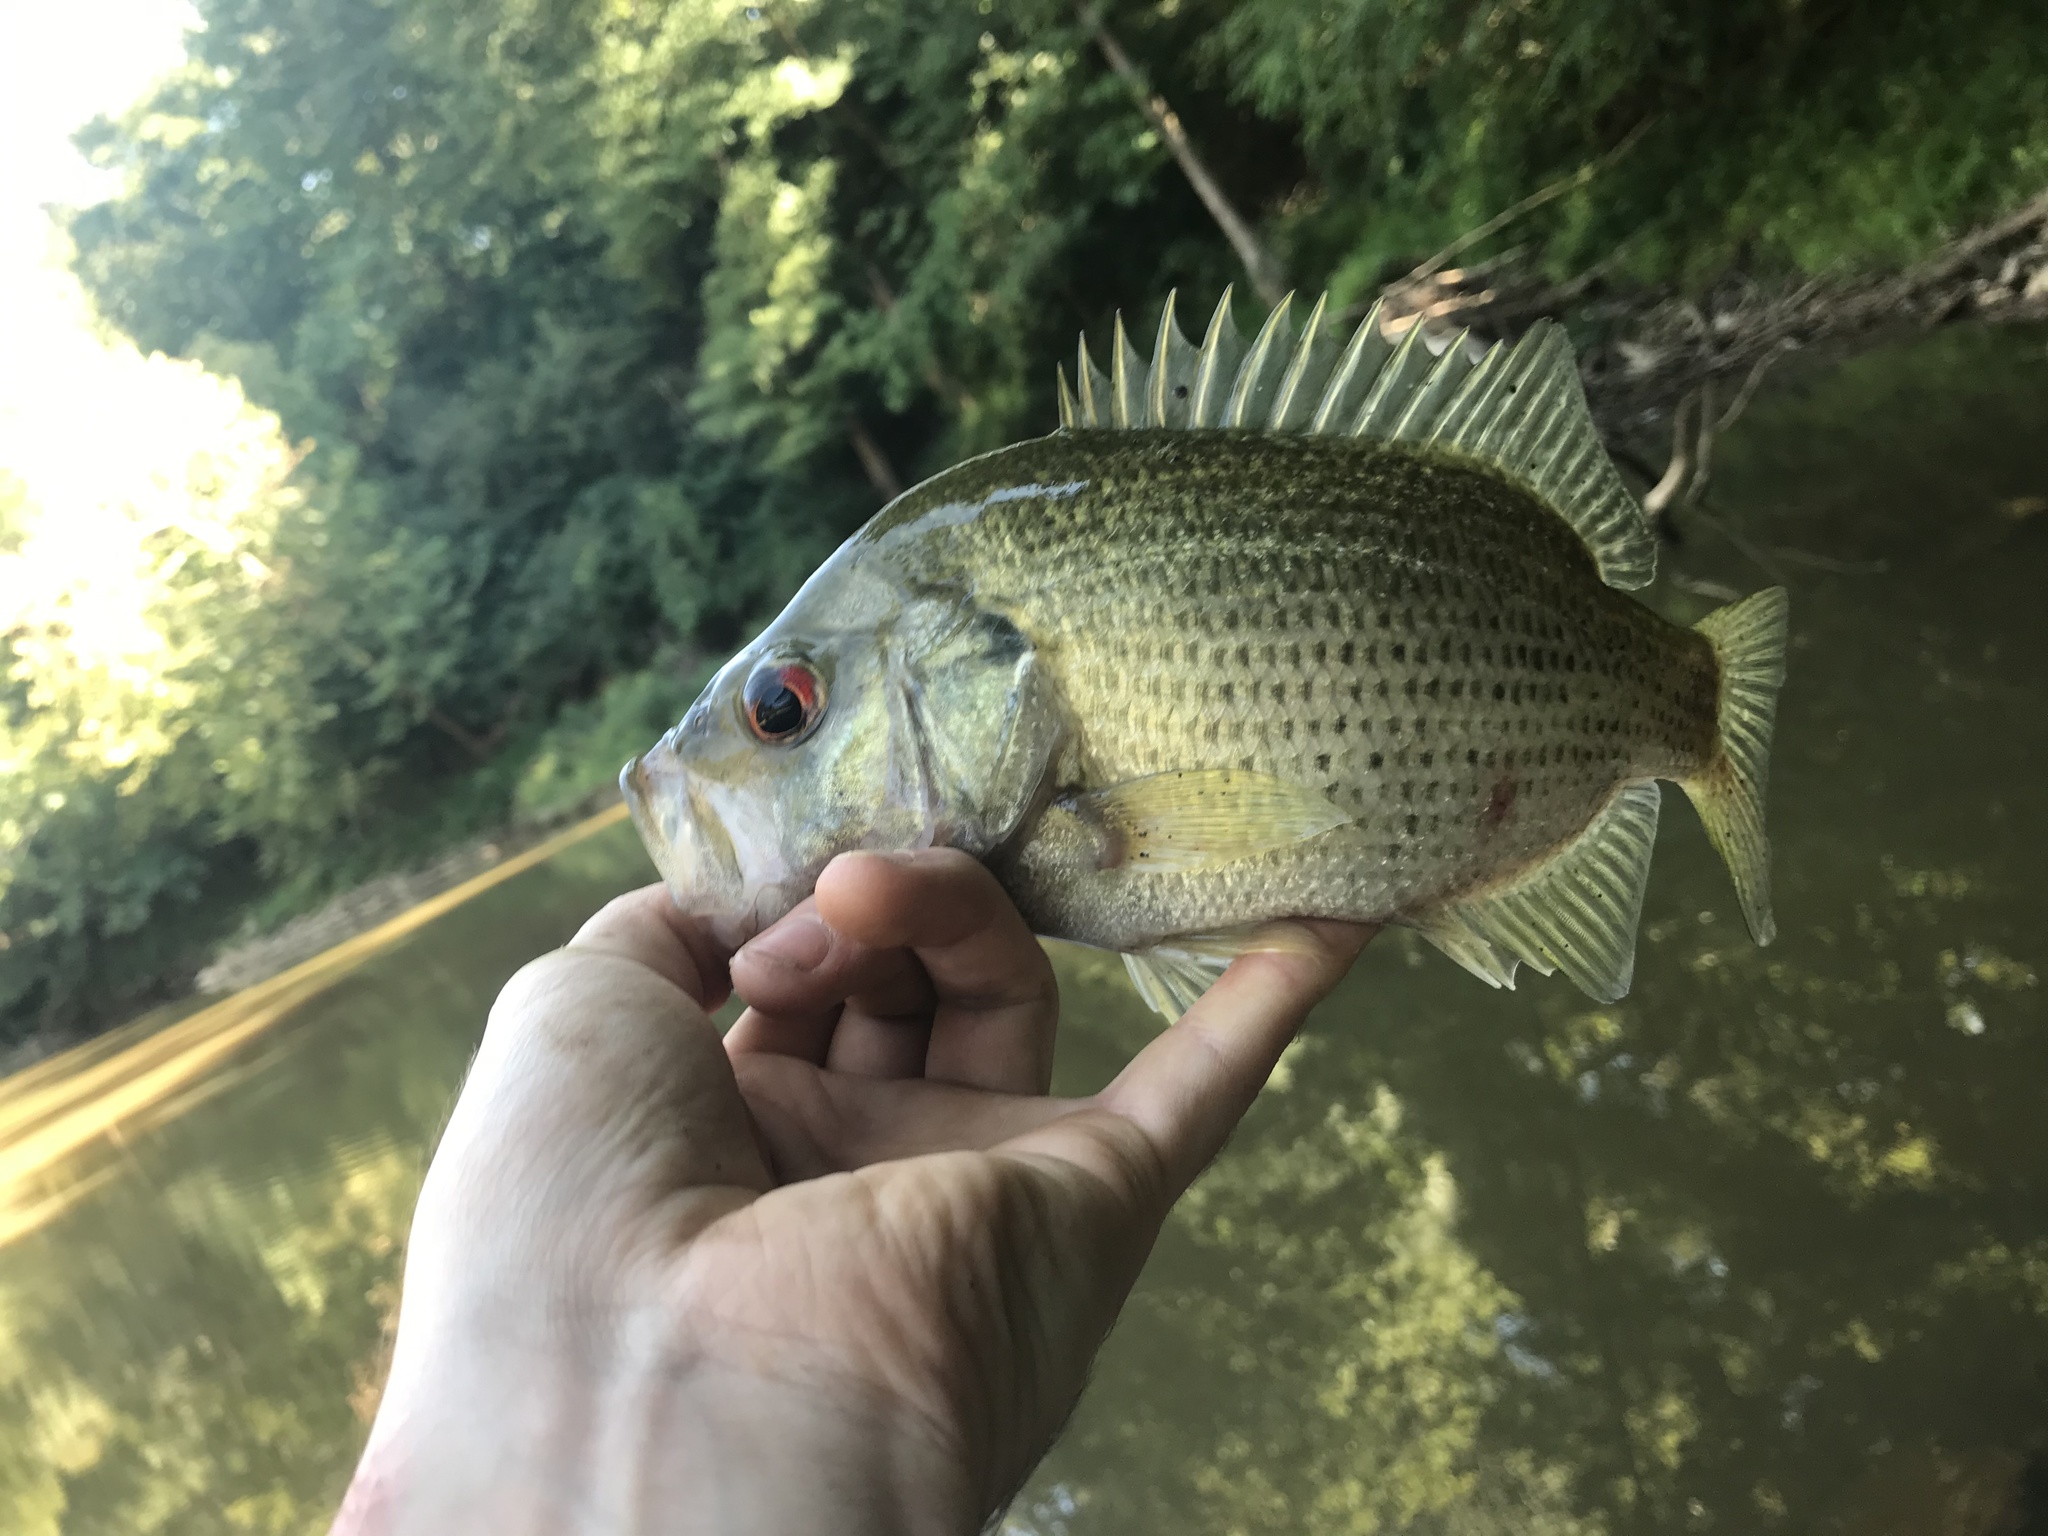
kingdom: Animalia
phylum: Chordata
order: Perciformes
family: Centrarchidae
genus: Ambloplites
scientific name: Ambloplites cavifrons
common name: Roanoke bass
